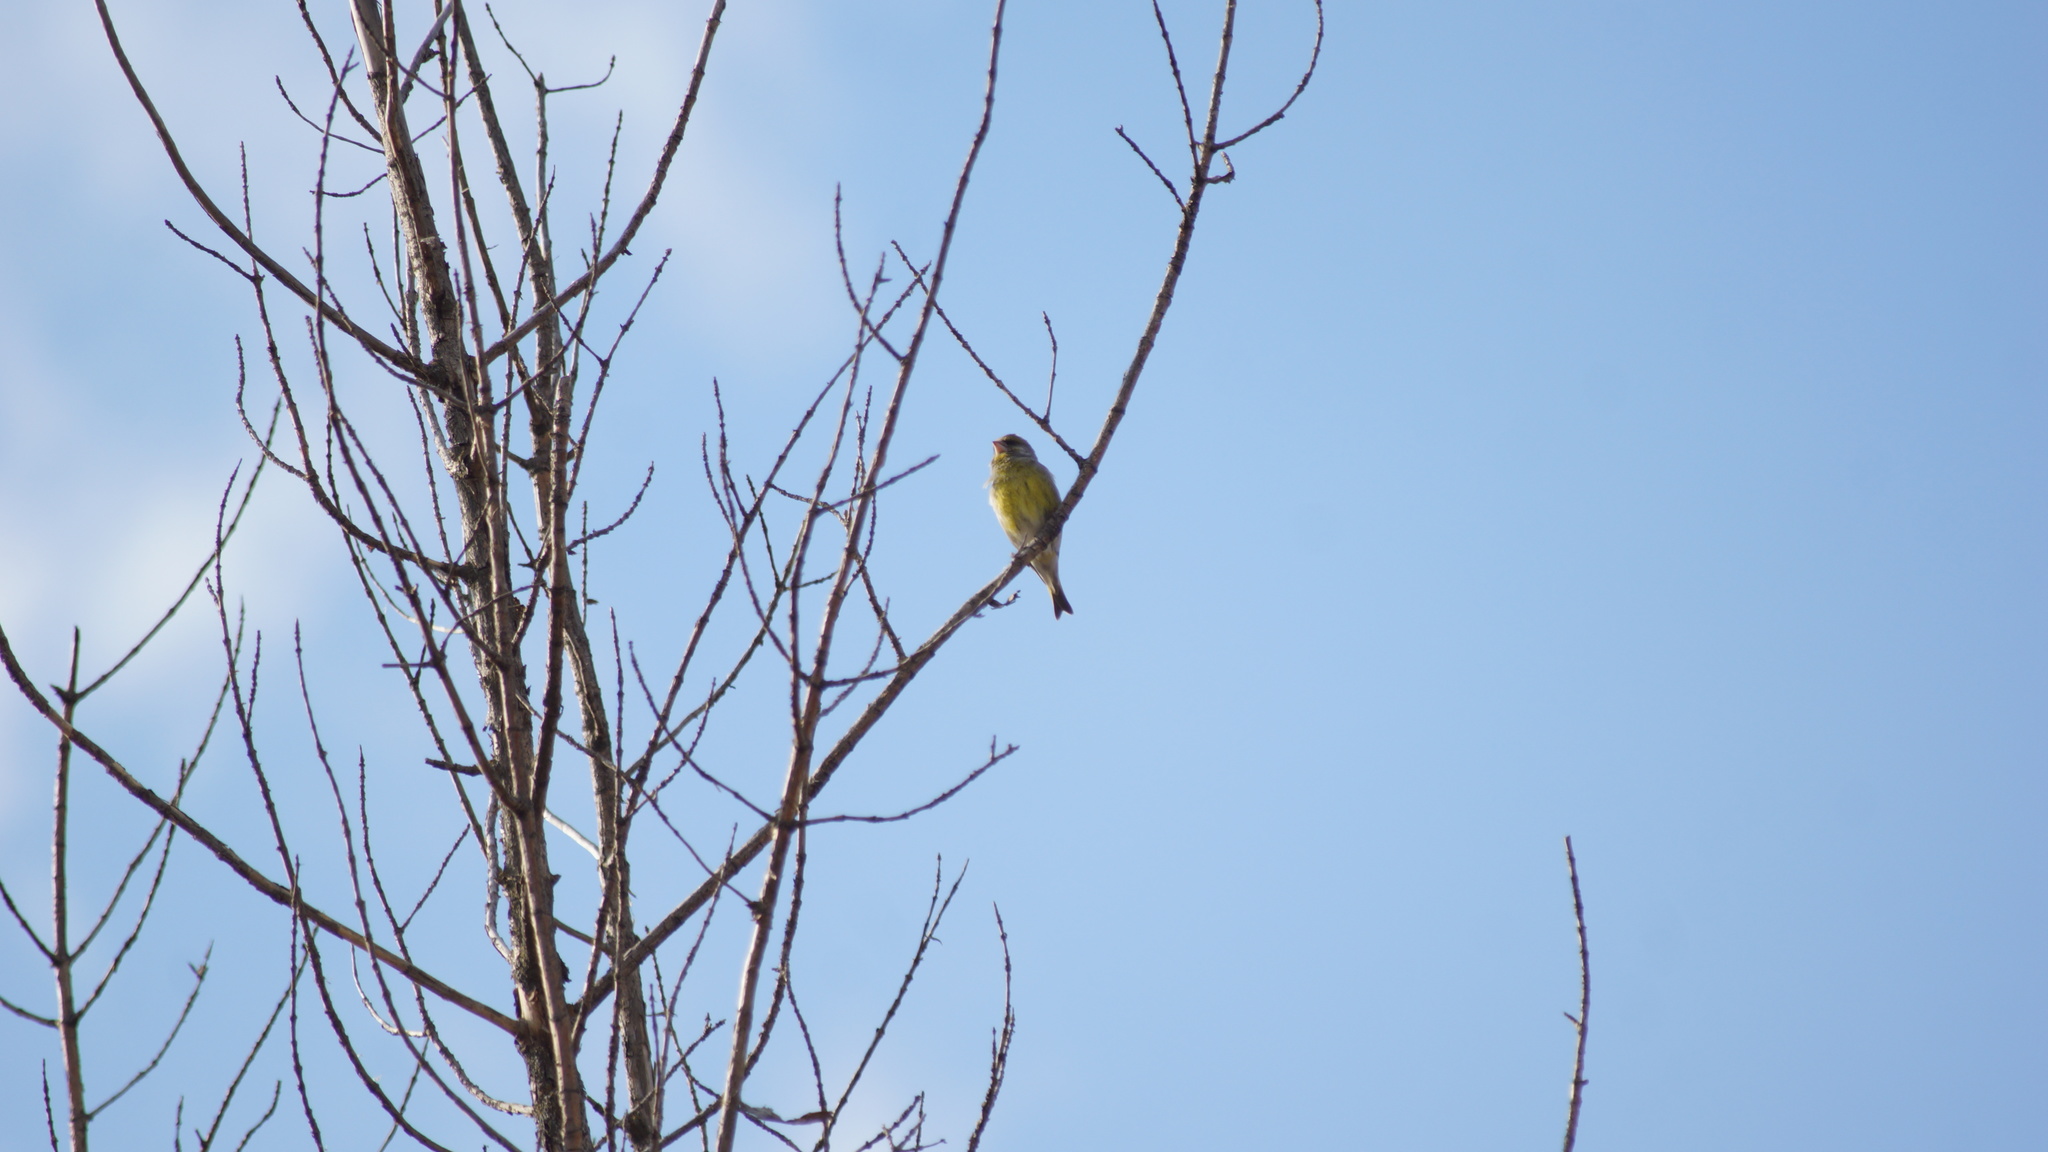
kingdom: Plantae
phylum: Tracheophyta
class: Liliopsida
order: Poales
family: Poaceae
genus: Chloris
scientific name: Chloris chloris
